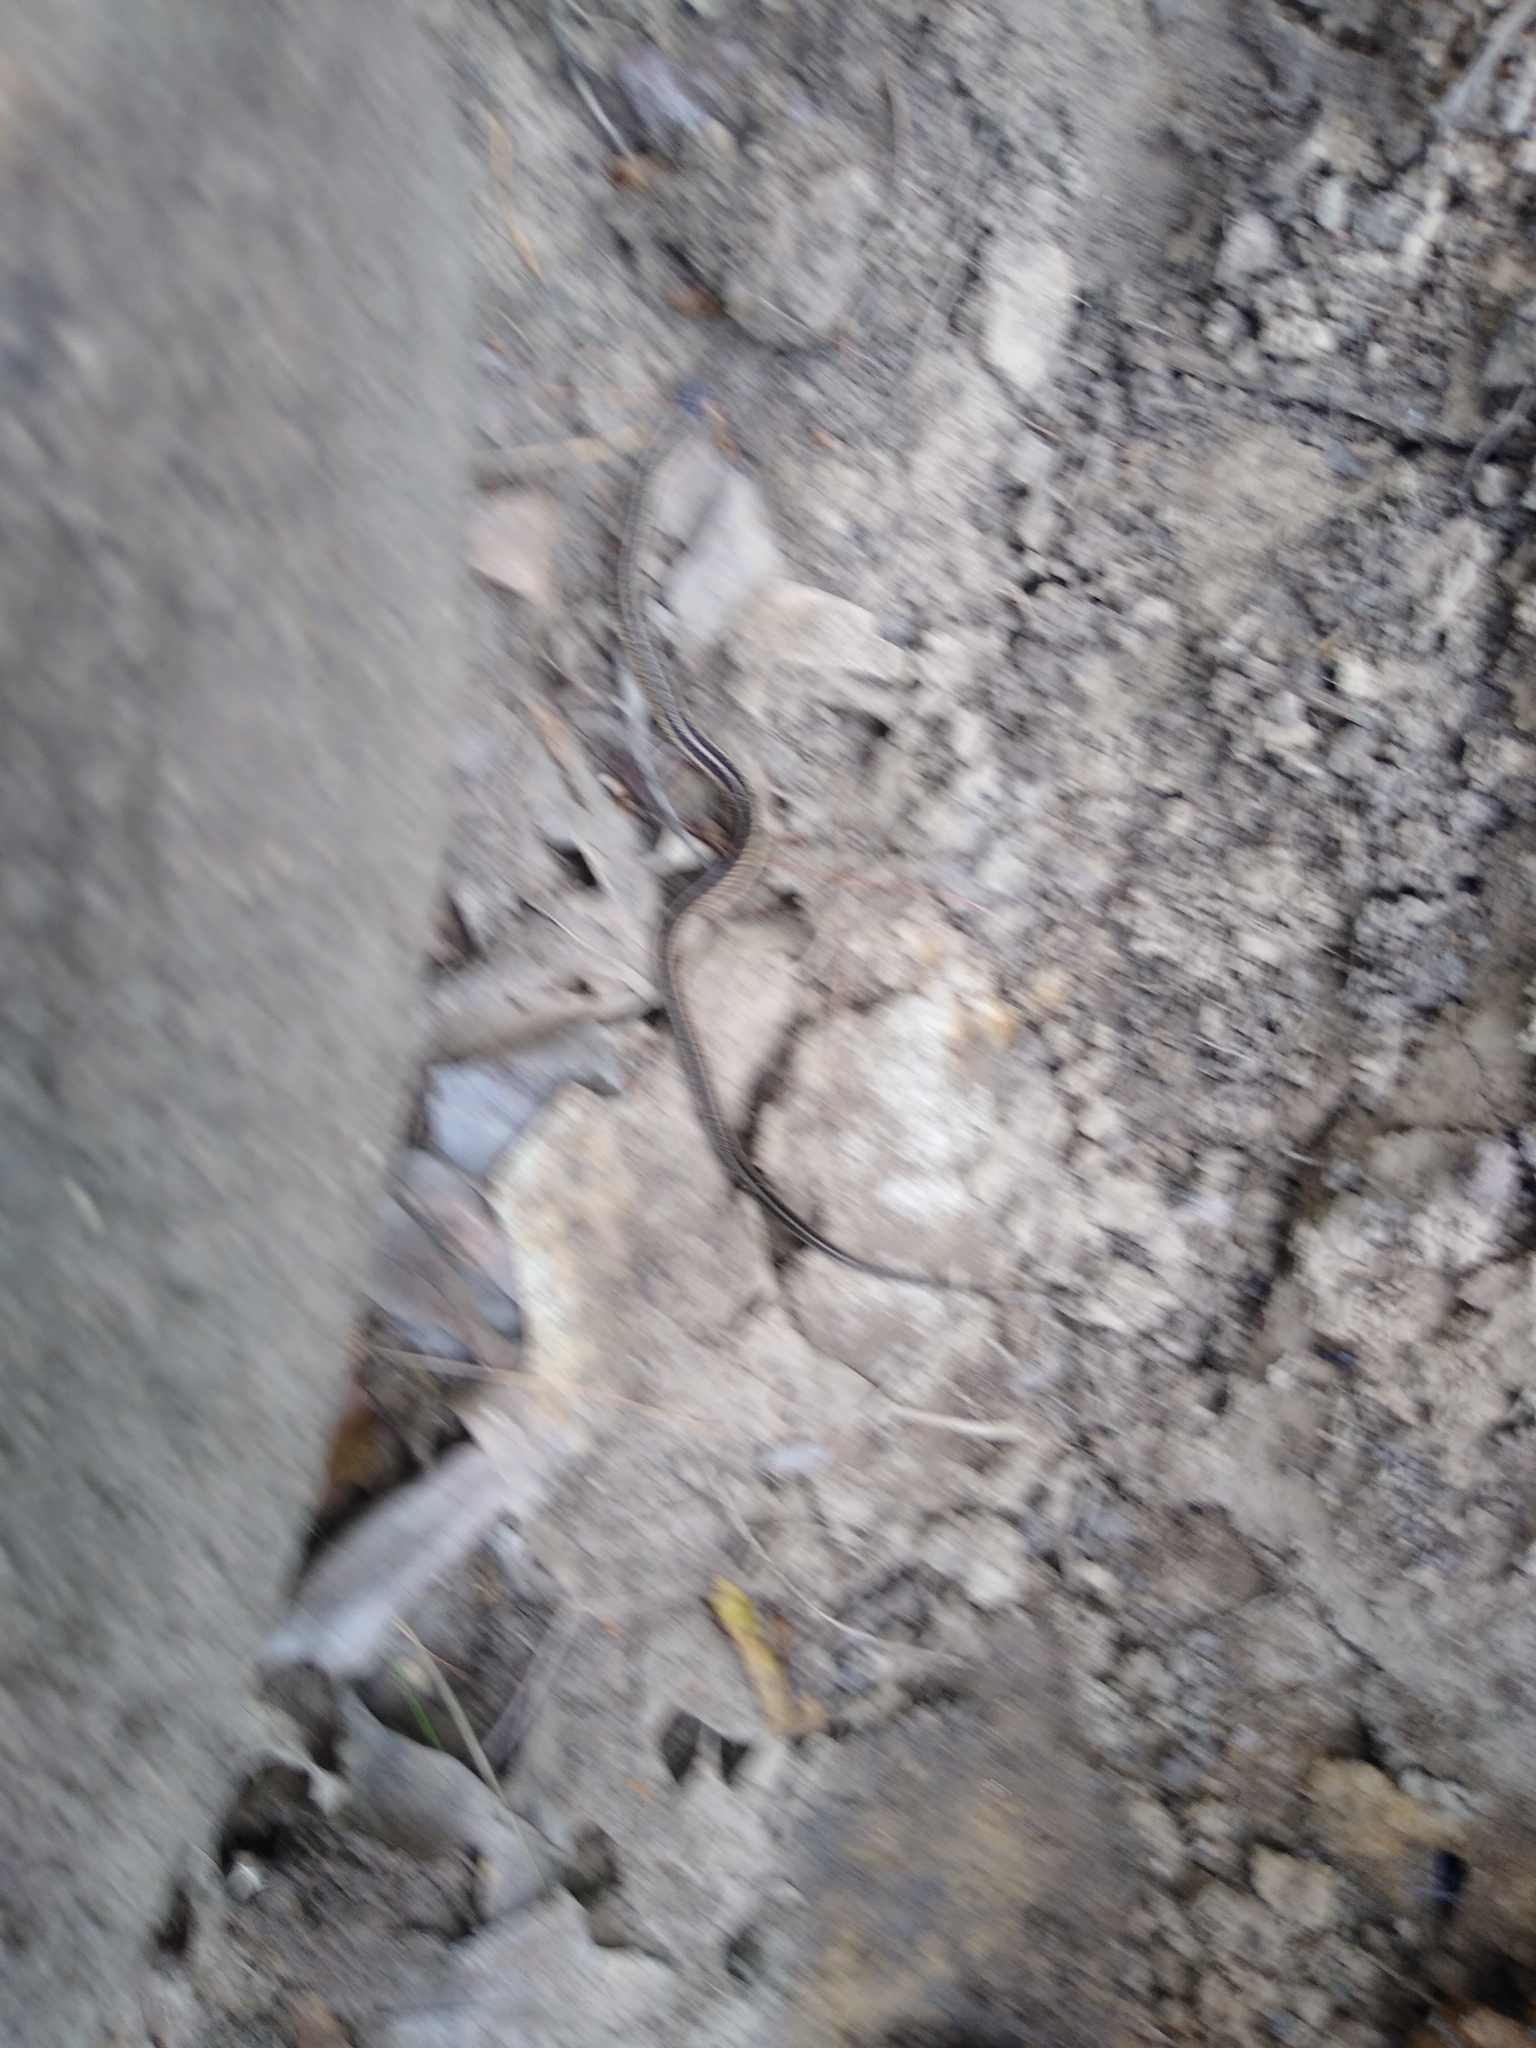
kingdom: Animalia
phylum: Chordata
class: Squamata
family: Colubridae
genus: Thamnophis
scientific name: Thamnophis sirtalis
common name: Common garter snake
